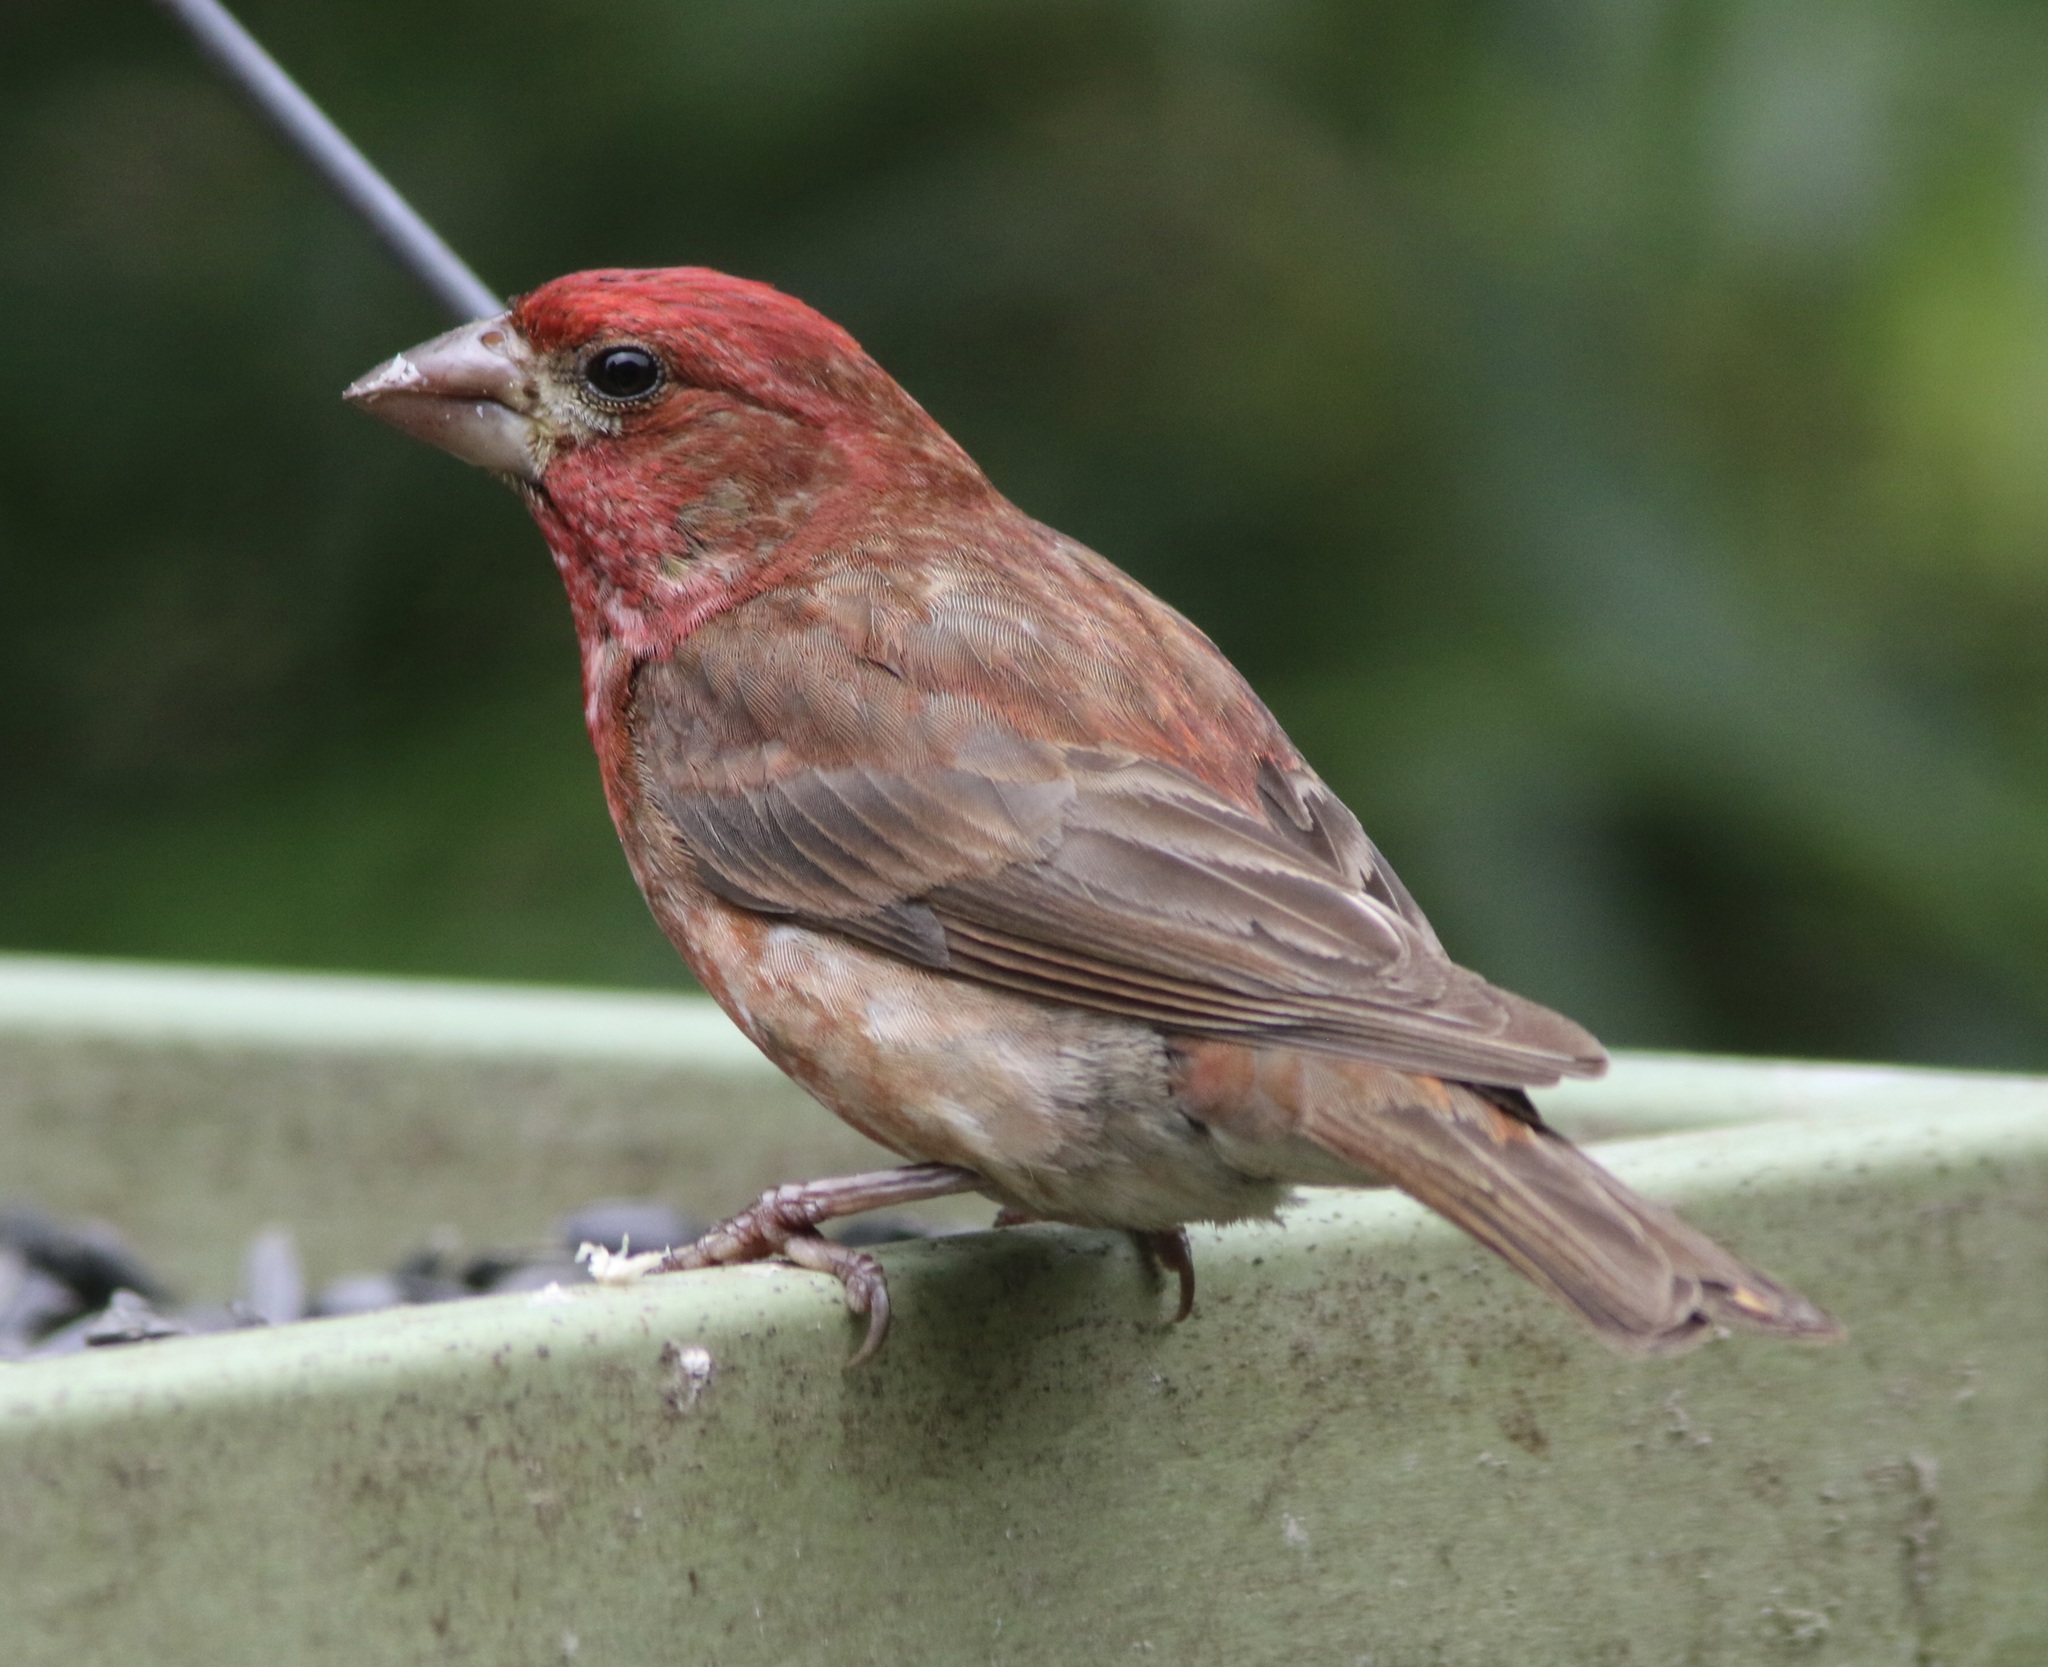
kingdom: Animalia
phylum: Chordata
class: Aves
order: Passeriformes
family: Fringillidae
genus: Haemorhous
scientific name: Haemorhous purpureus
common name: Purple finch
